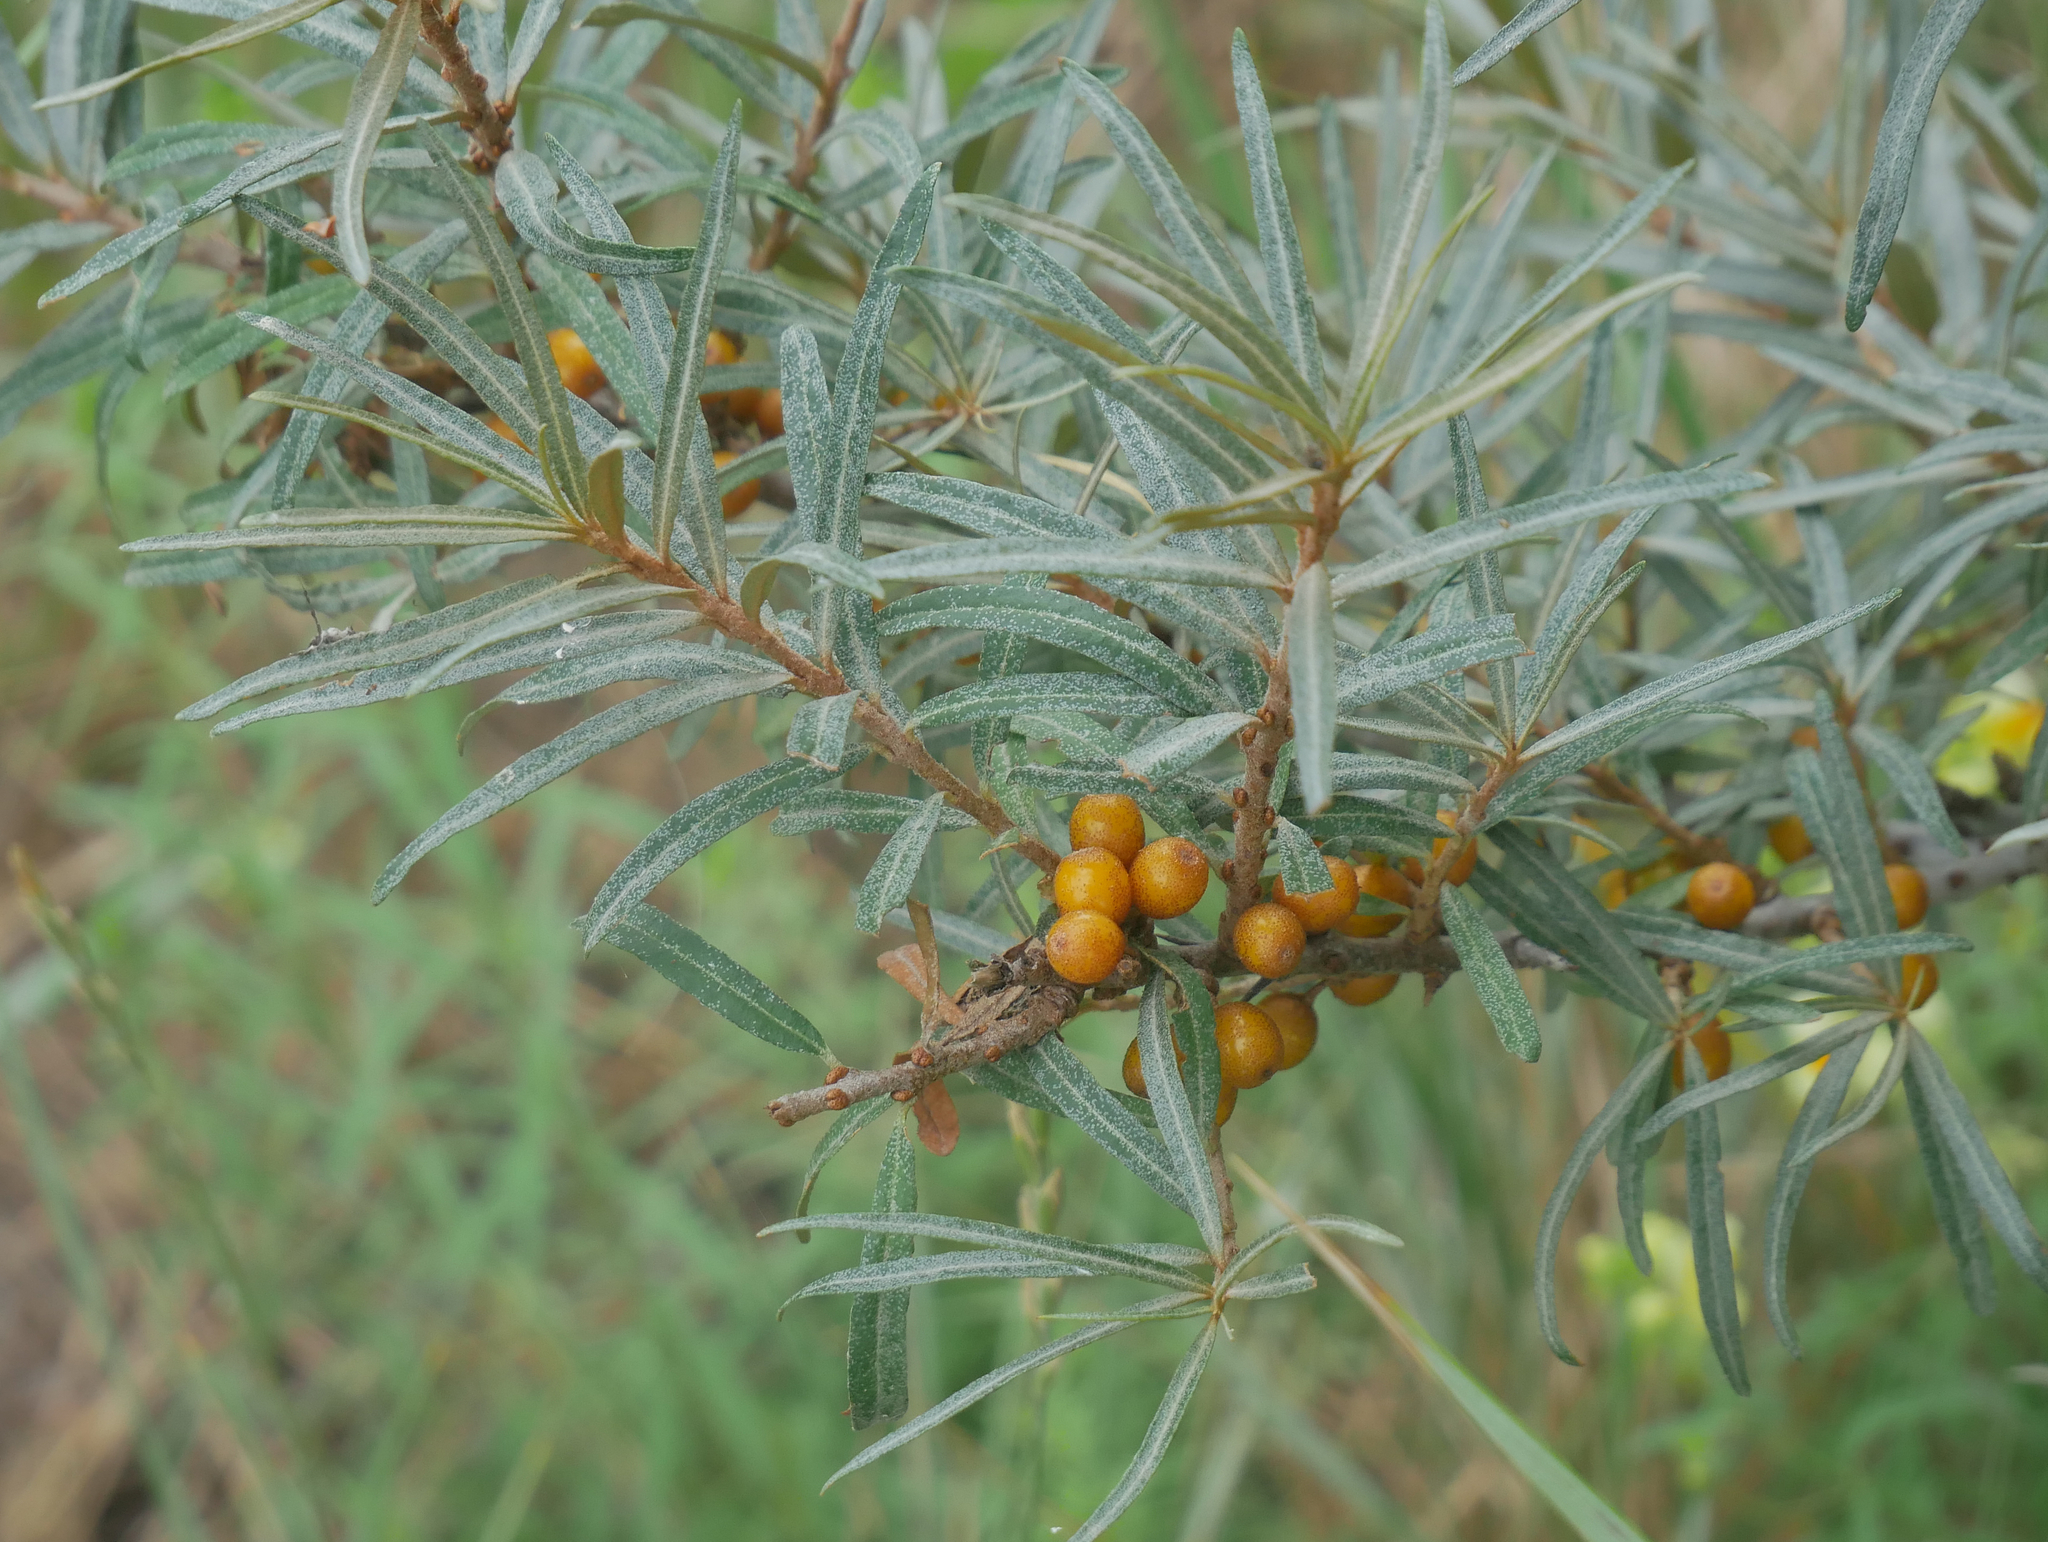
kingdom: Plantae
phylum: Tracheophyta
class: Magnoliopsida
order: Rosales
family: Elaeagnaceae
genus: Hippophae
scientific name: Hippophae rhamnoides
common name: Sea-buckthorn
